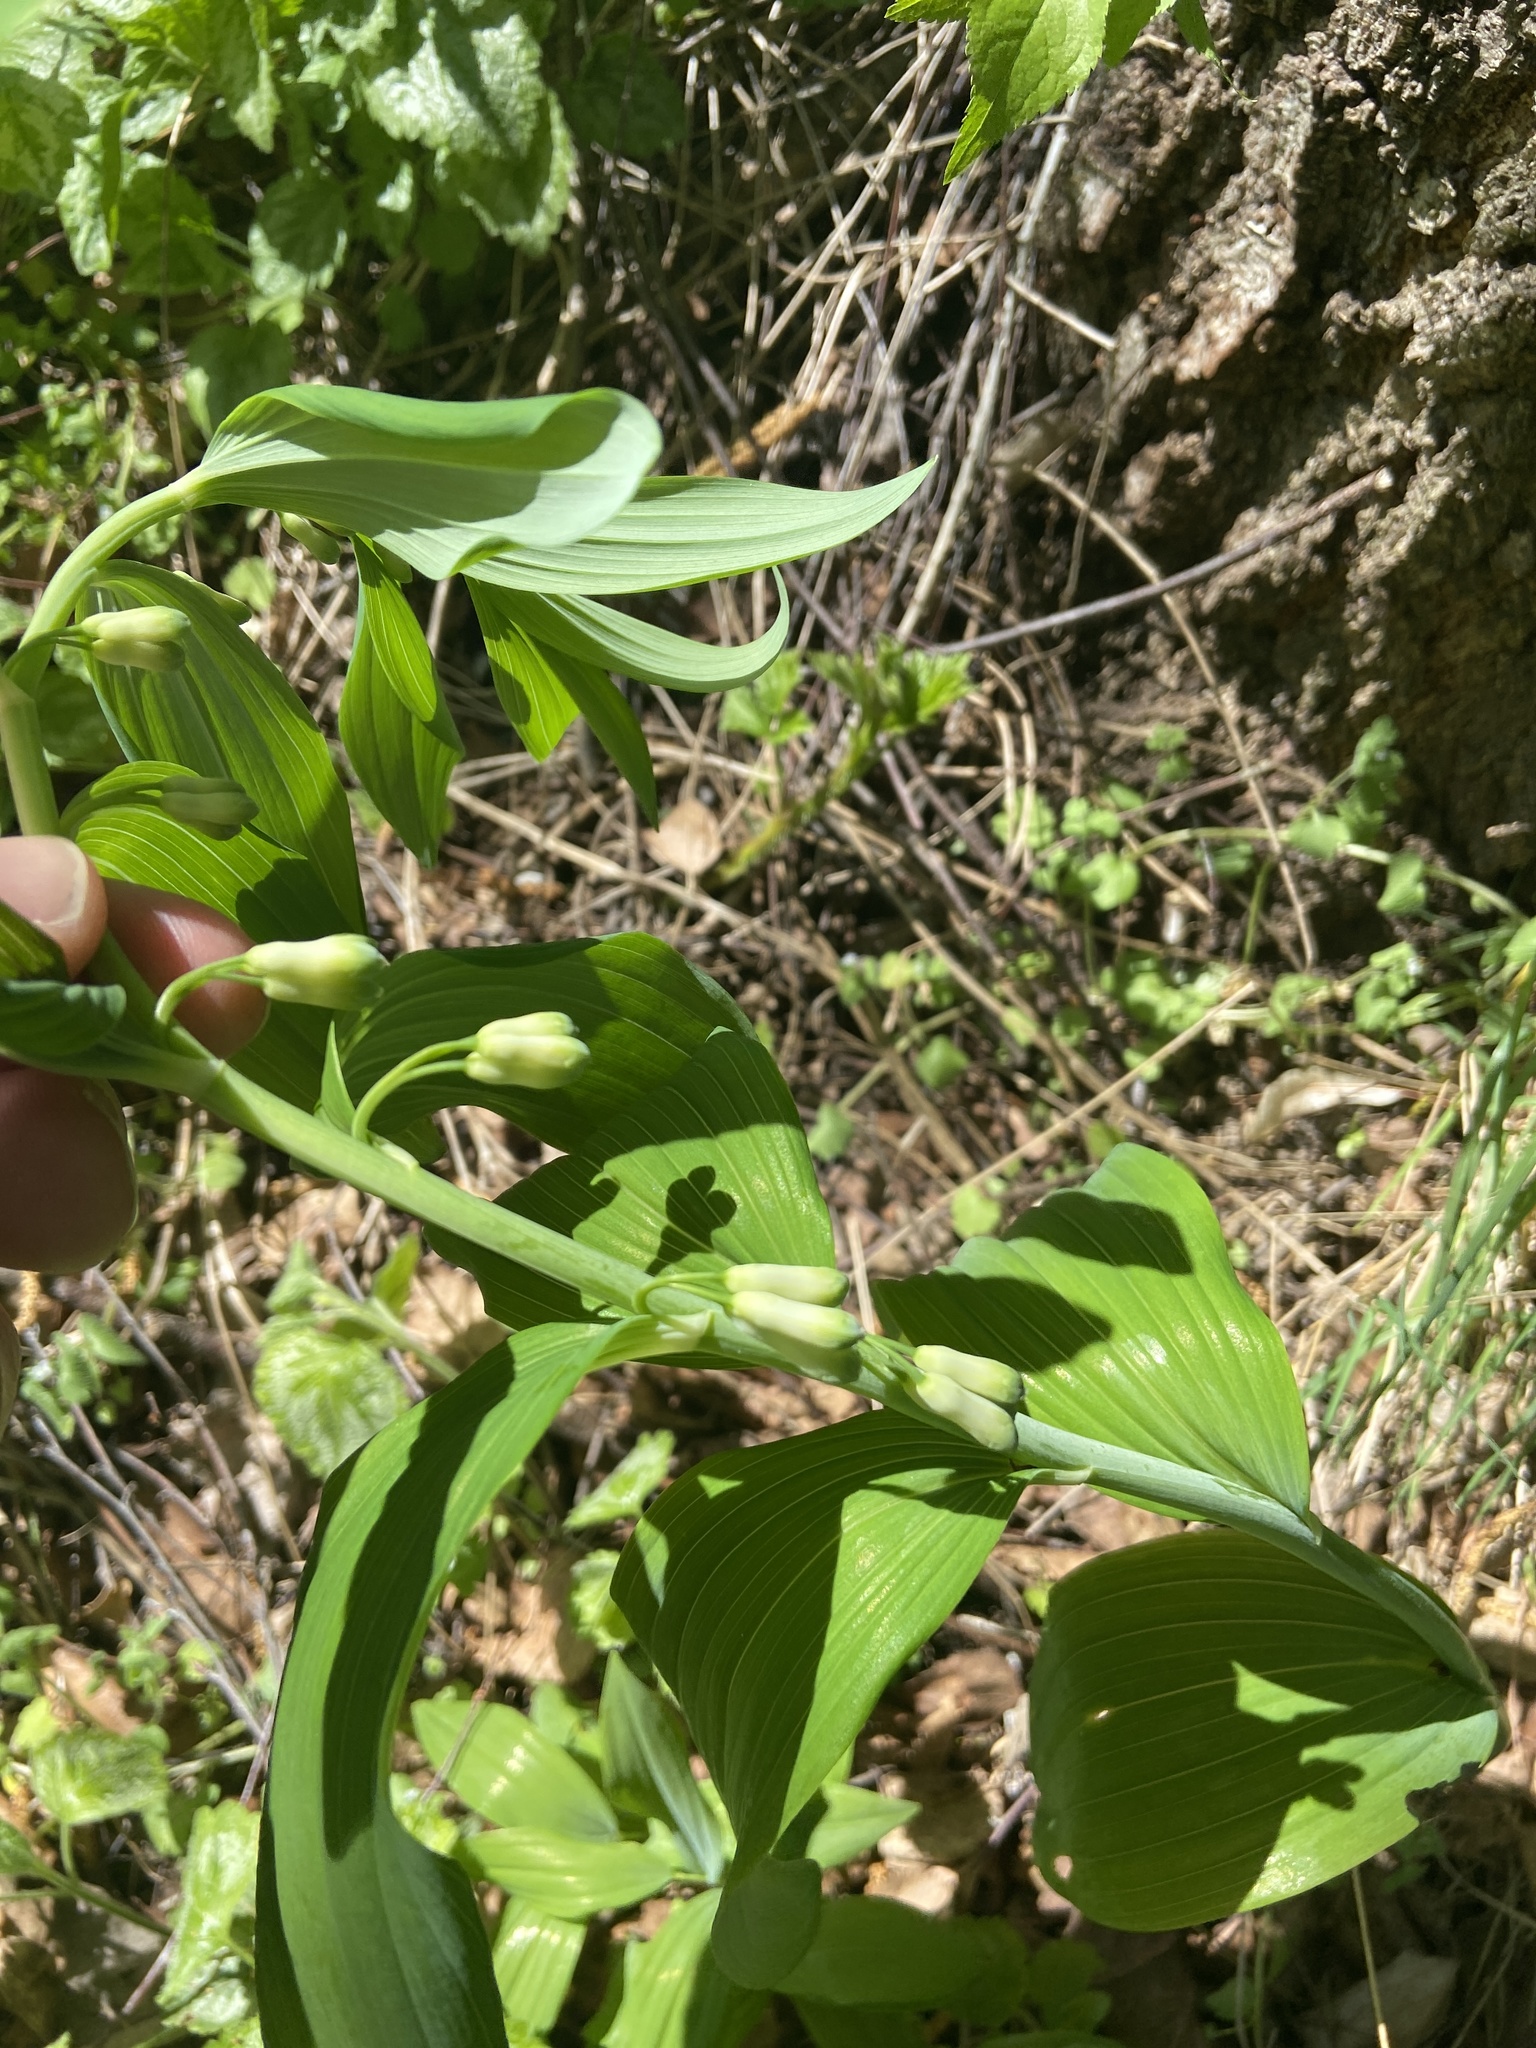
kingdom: Plantae
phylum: Tracheophyta
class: Liliopsida
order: Asparagales
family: Asparagaceae
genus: Polygonatum
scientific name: Polygonatum multiflorum
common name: Solomon's-seal
